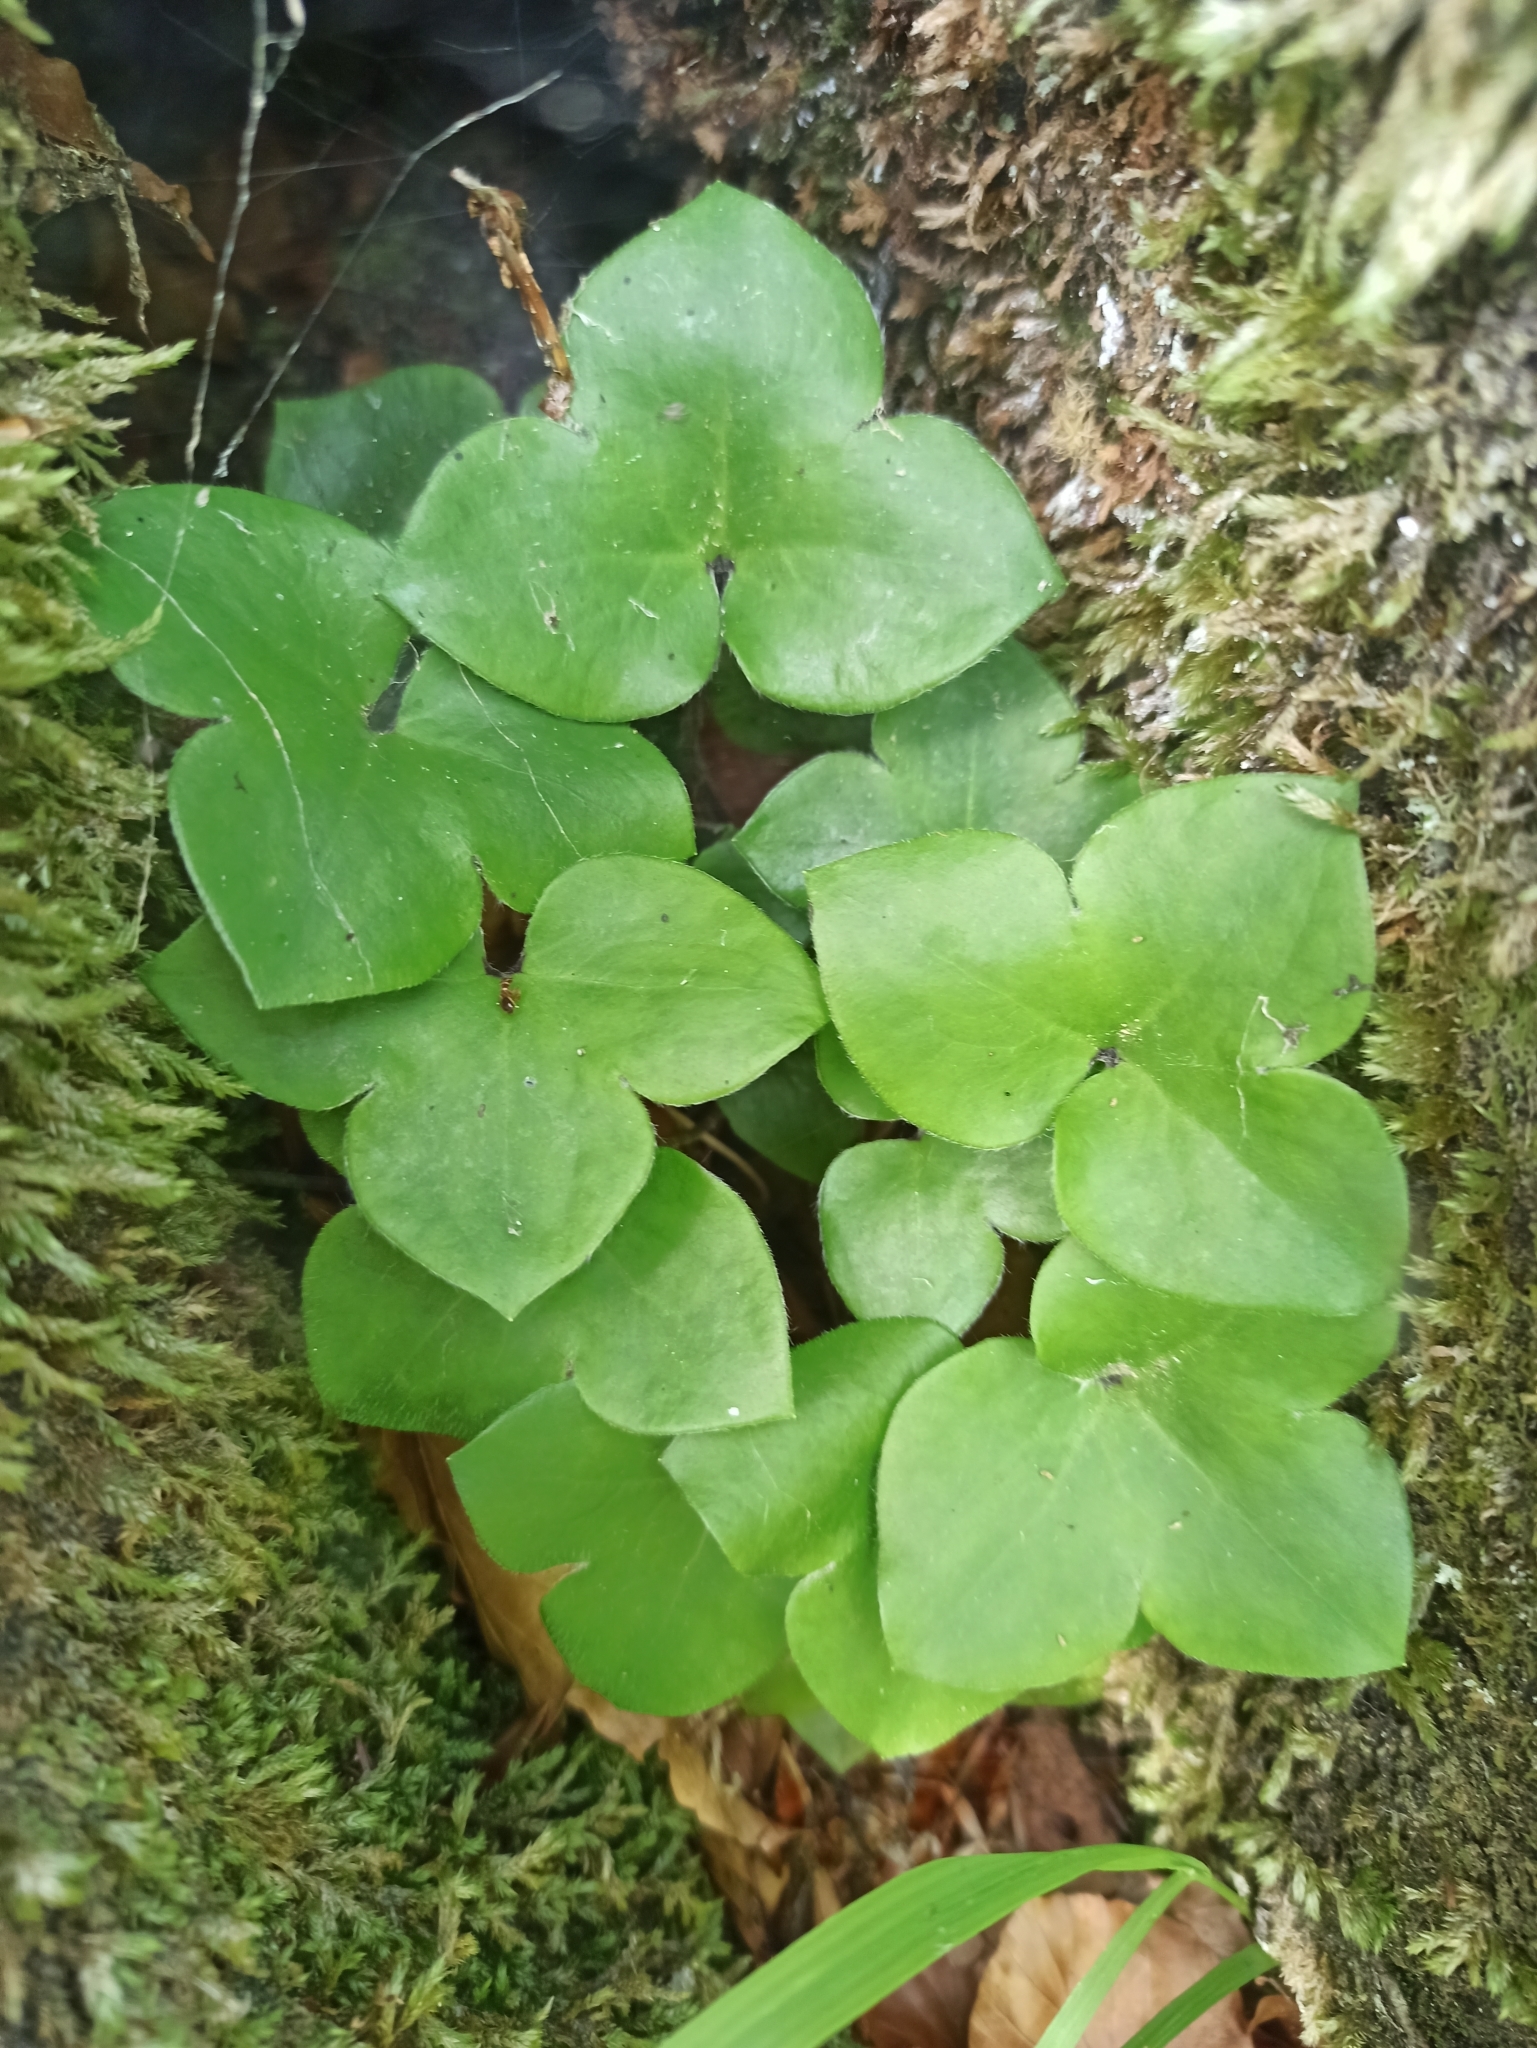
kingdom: Plantae
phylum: Tracheophyta
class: Magnoliopsida
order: Ranunculales
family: Ranunculaceae
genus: Hepatica
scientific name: Hepatica nobilis
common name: Liverleaf
